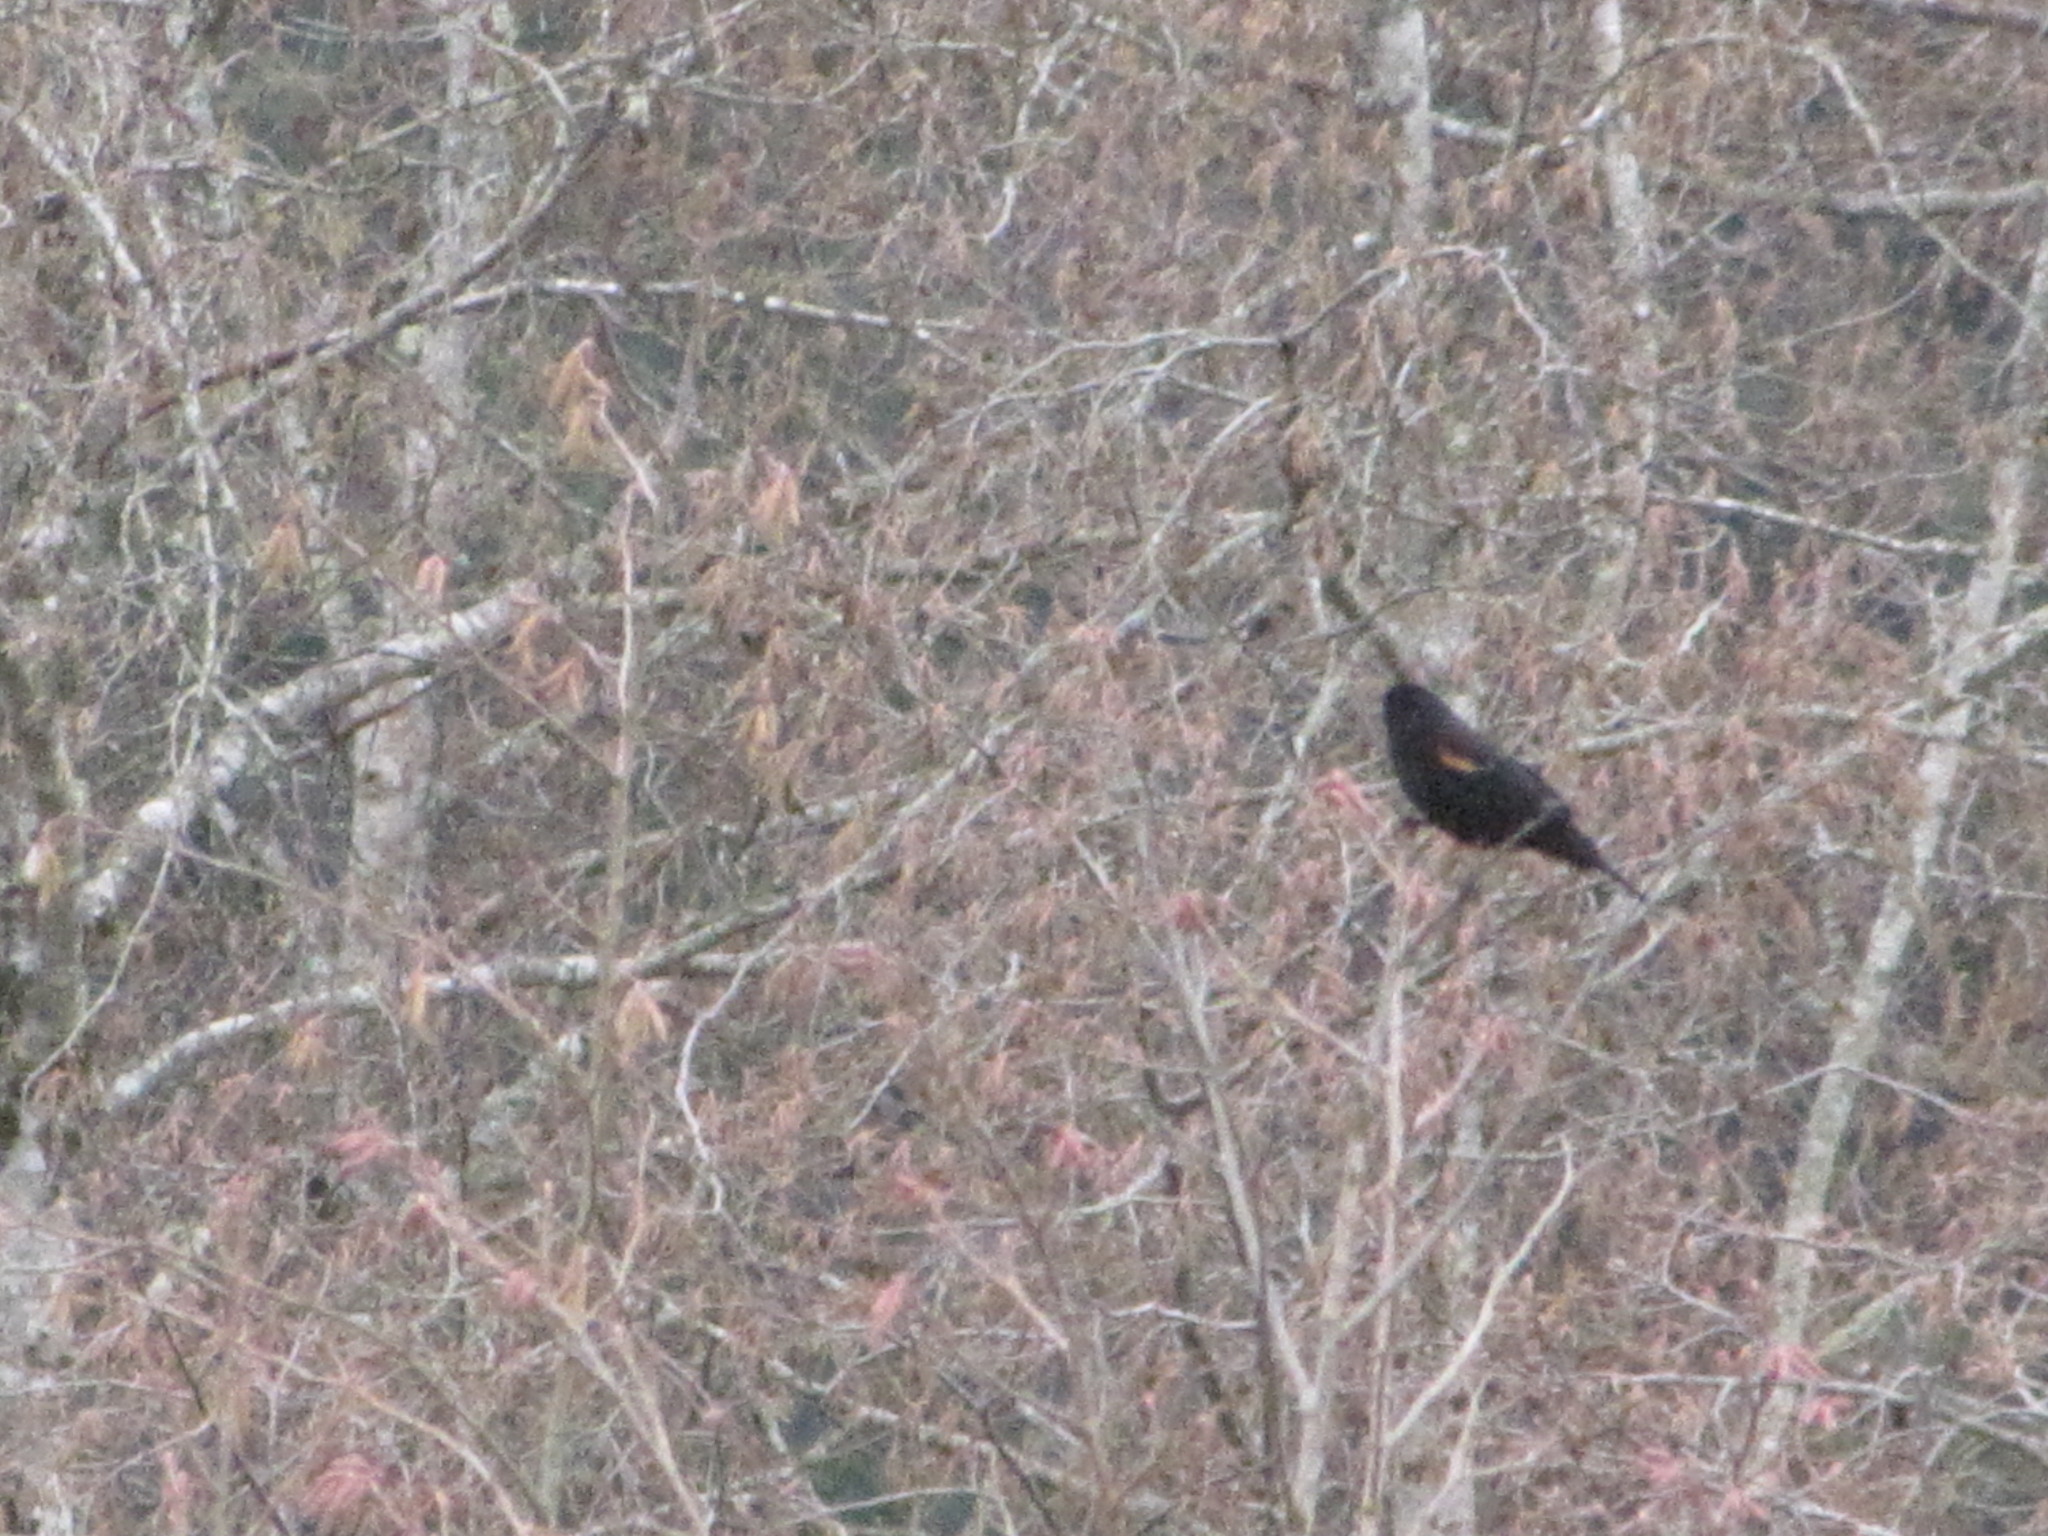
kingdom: Animalia
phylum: Chordata
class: Aves
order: Passeriformes
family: Icteridae
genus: Agelaius
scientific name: Agelaius phoeniceus
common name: Red-winged blackbird
